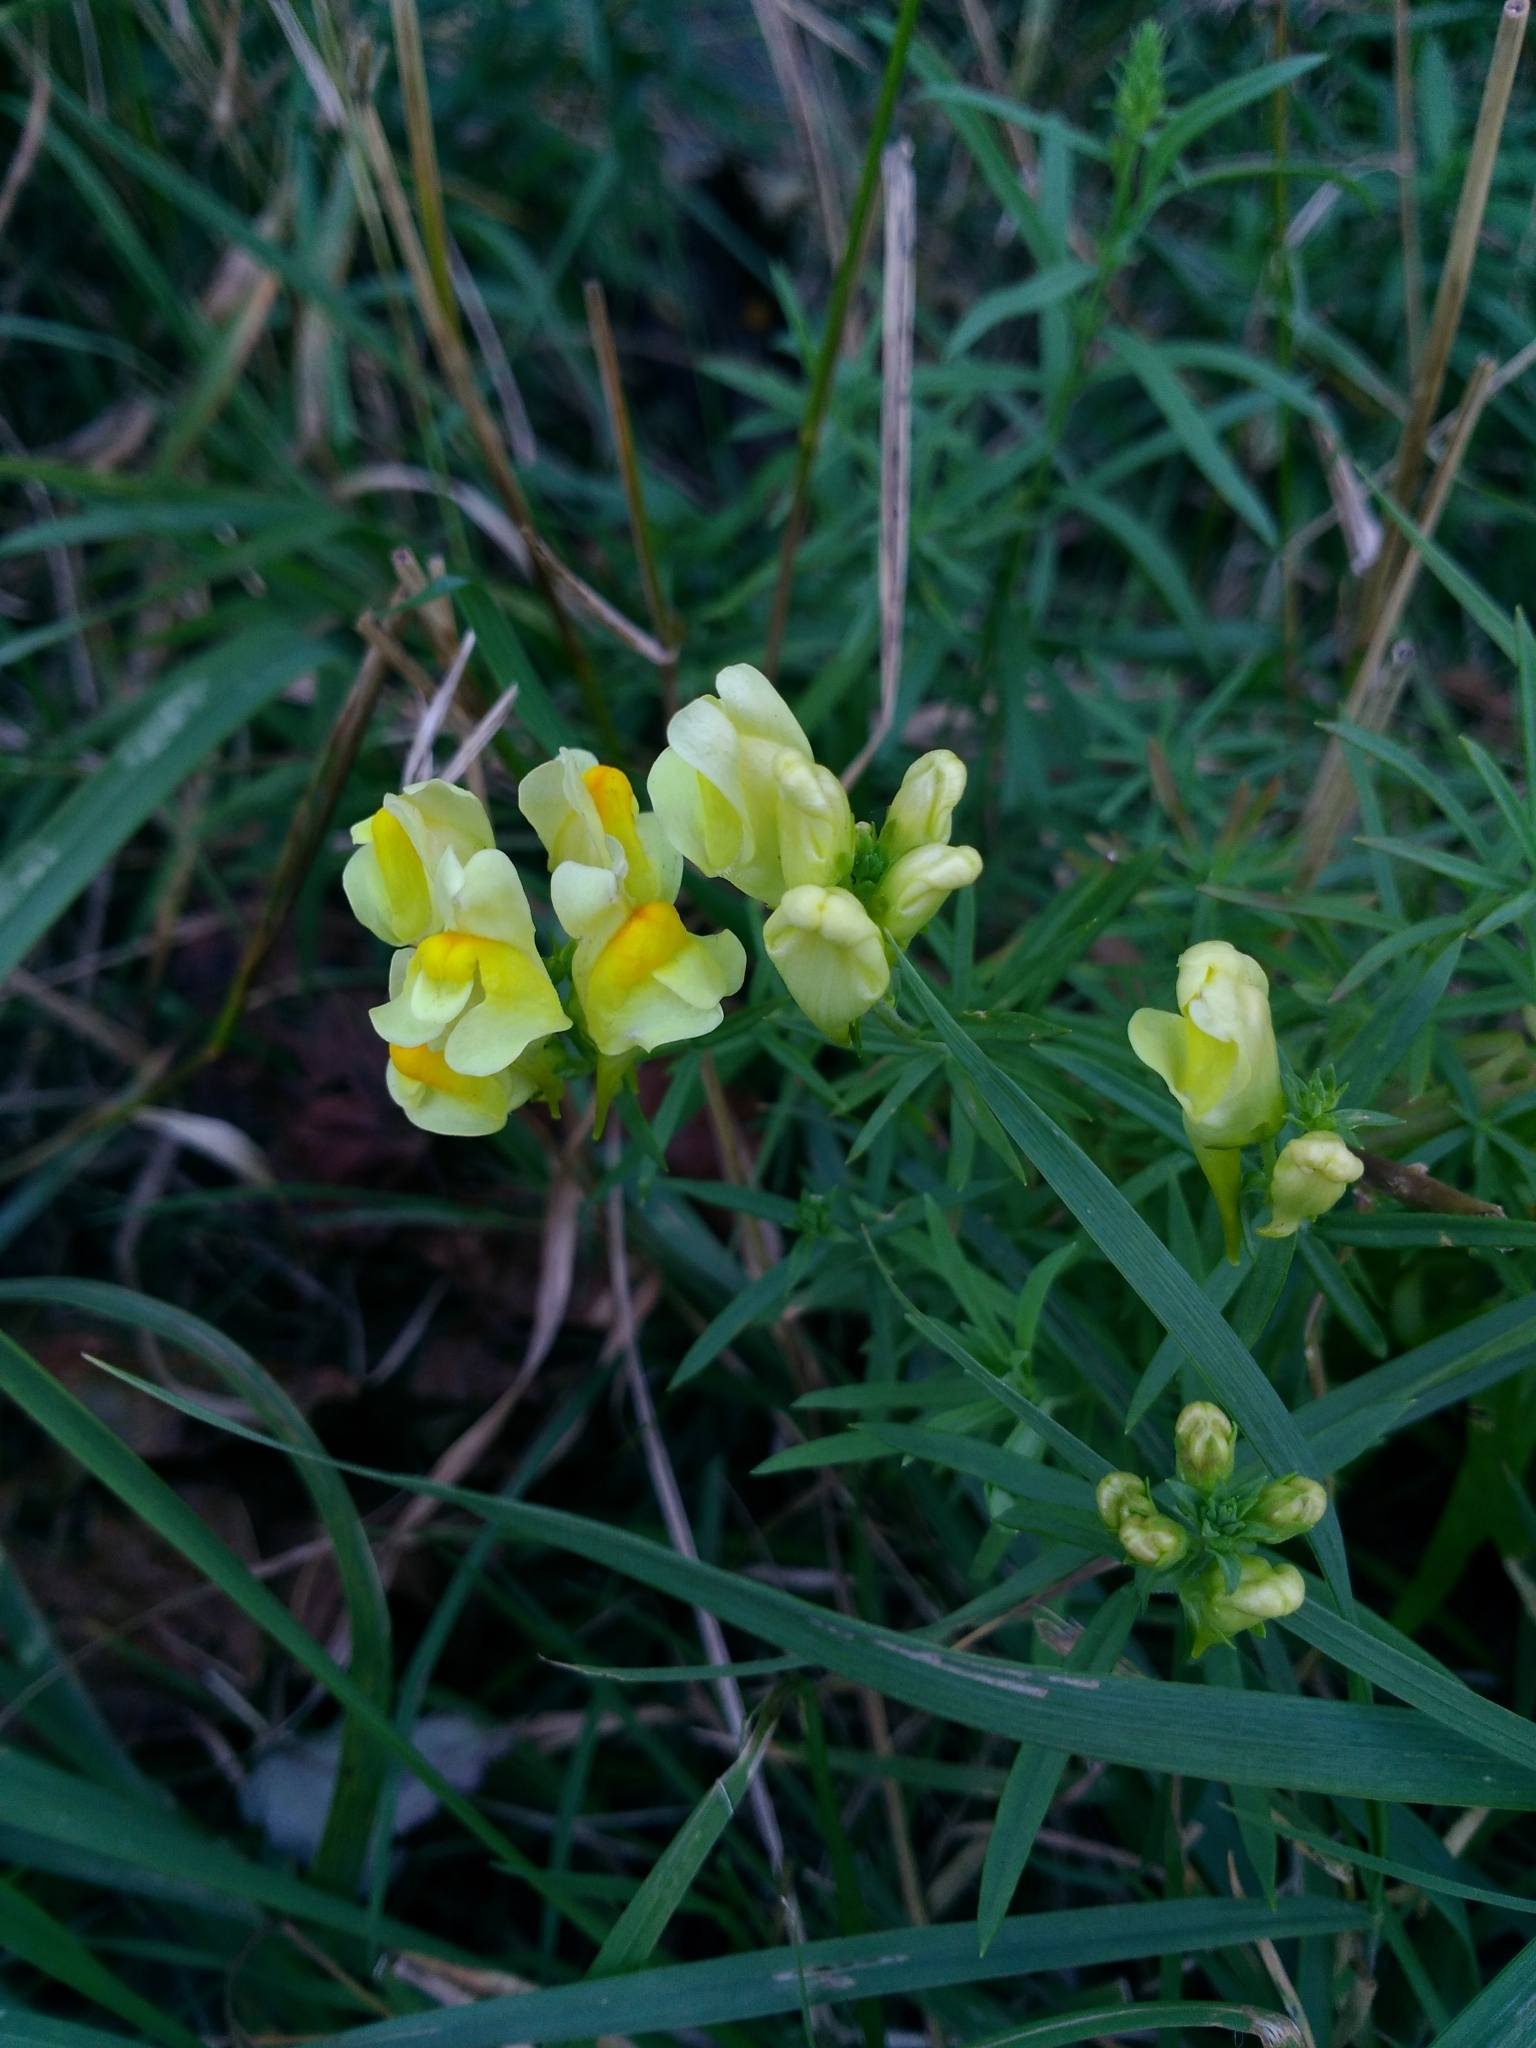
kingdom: Plantae
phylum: Tracheophyta
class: Magnoliopsida
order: Lamiales
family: Plantaginaceae
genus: Linaria
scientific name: Linaria vulgaris
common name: Butter and eggs
